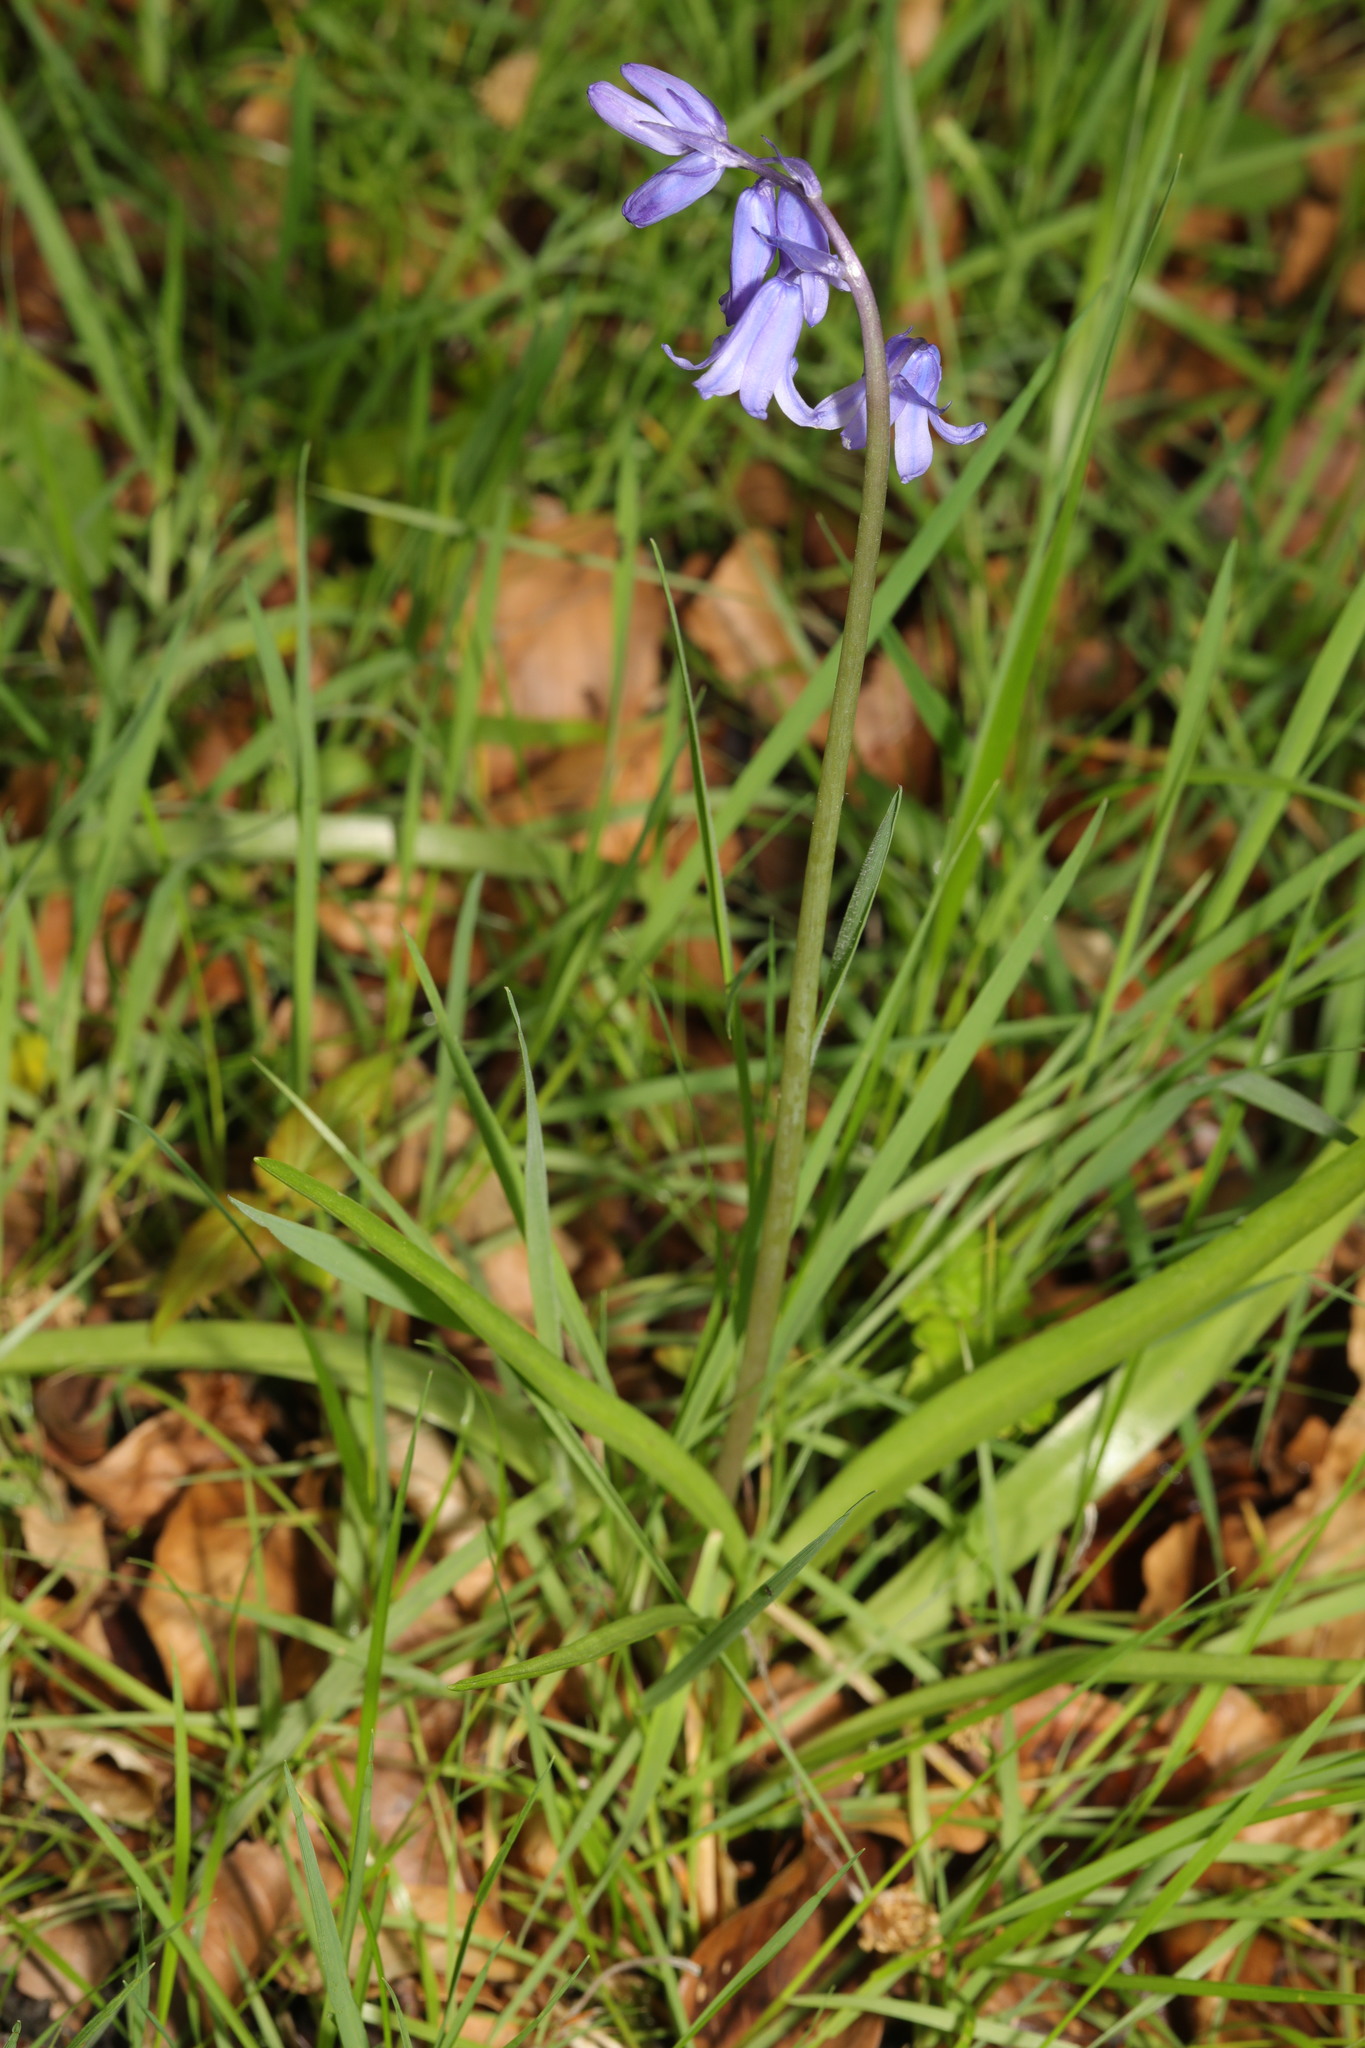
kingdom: Plantae
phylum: Tracheophyta
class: Liliopsida
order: Asparagales
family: Asparagaceae
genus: Hyacinthoides
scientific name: Hyacinthoides massartiana
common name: Hyacinthoides
